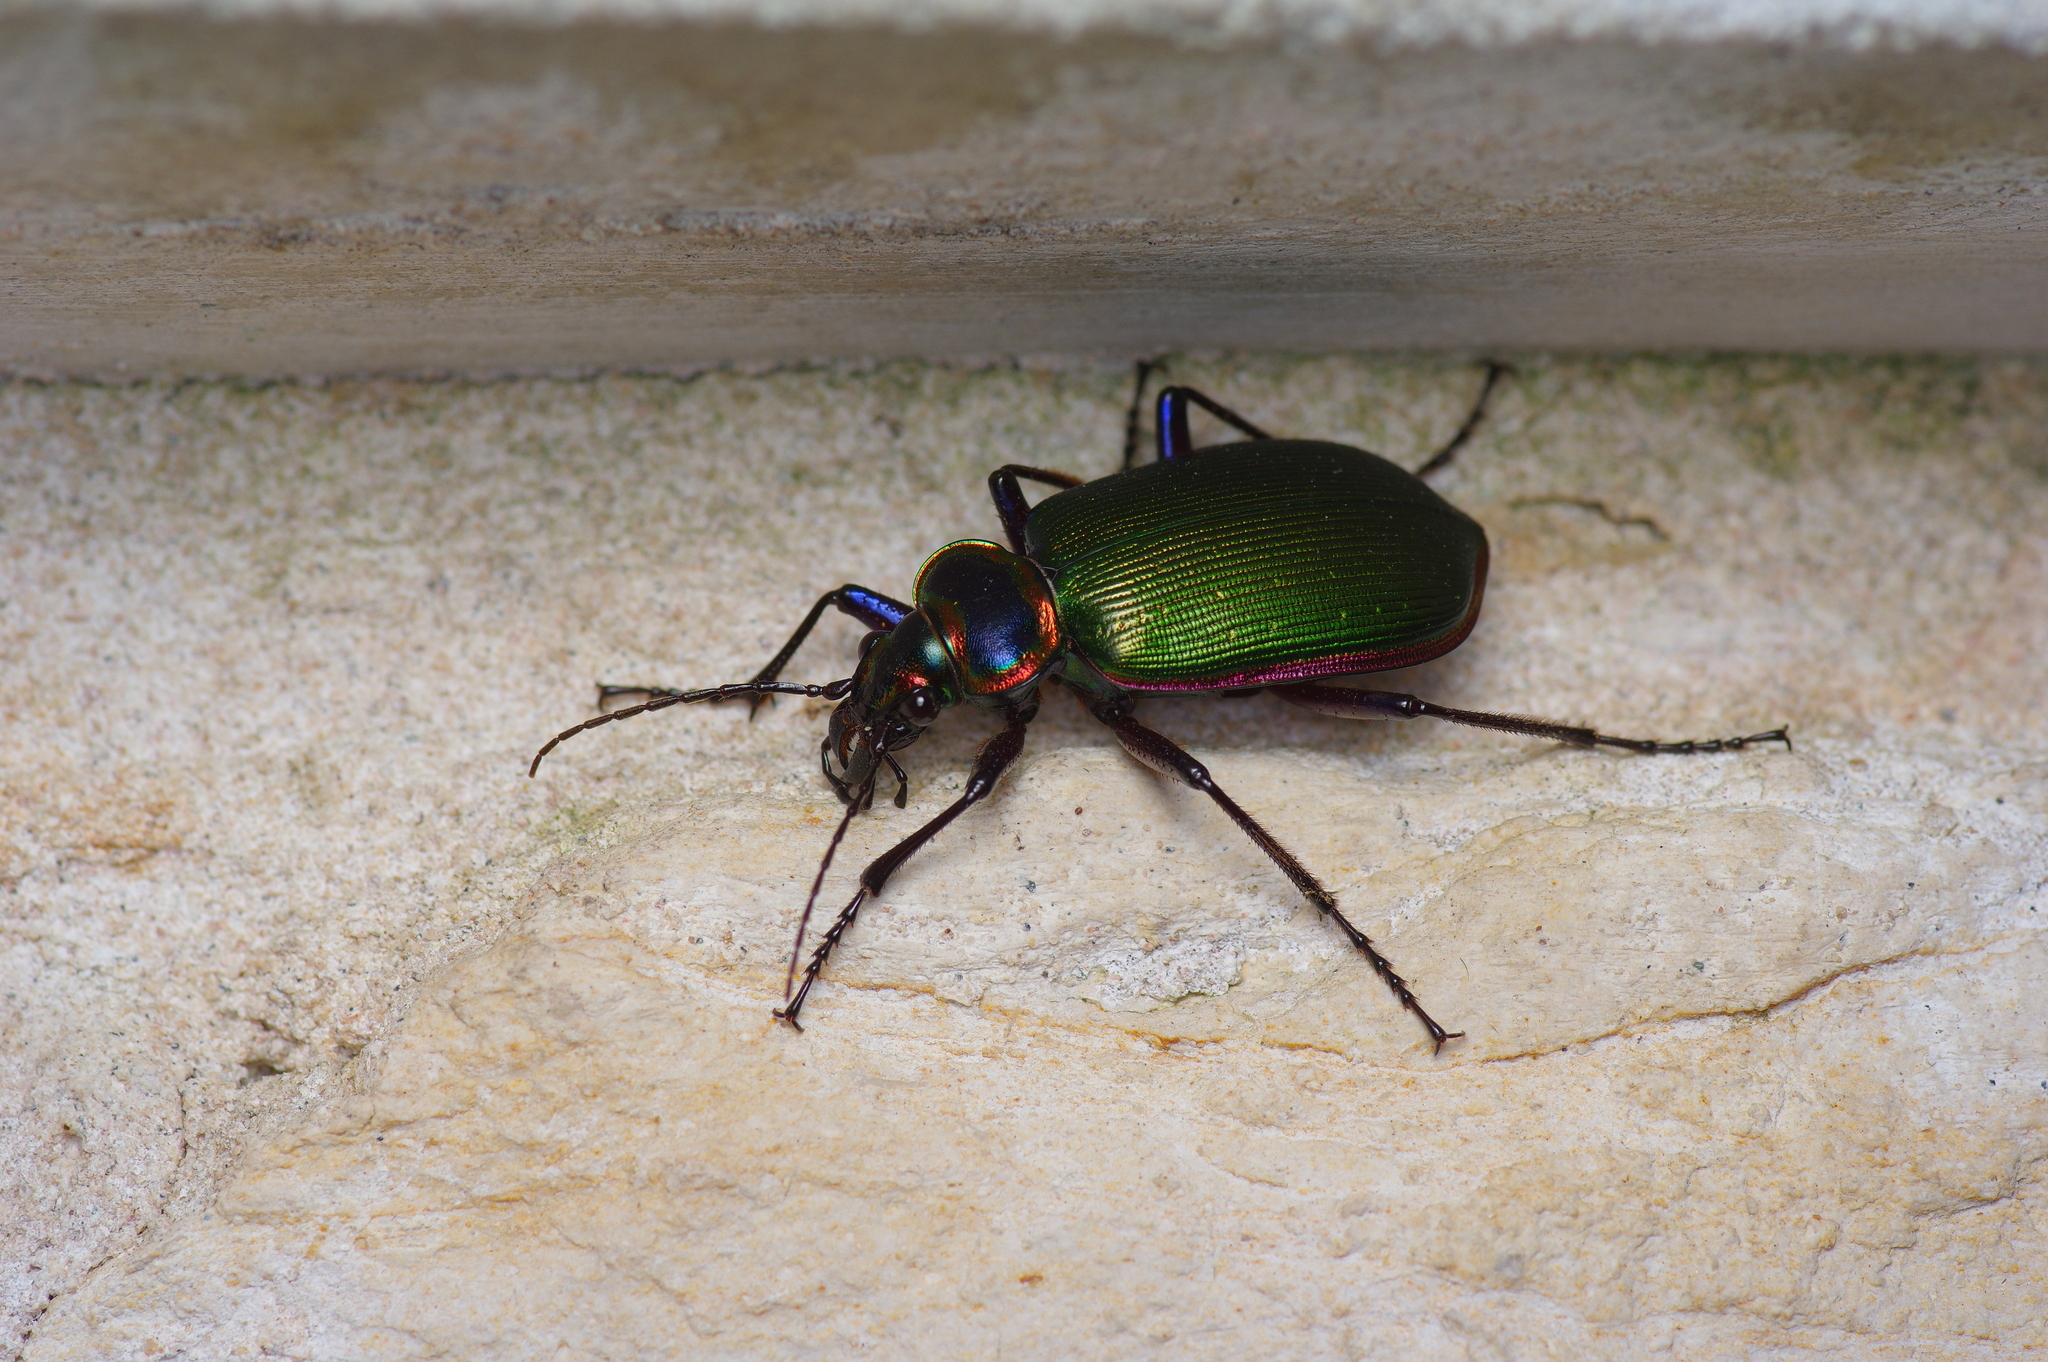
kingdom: Animalia
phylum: Arthropoda
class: Insecta
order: Coleoptera
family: Carabidae
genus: Calosoma
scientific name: Calosoma scrutator
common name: Fiery searcher beetle
